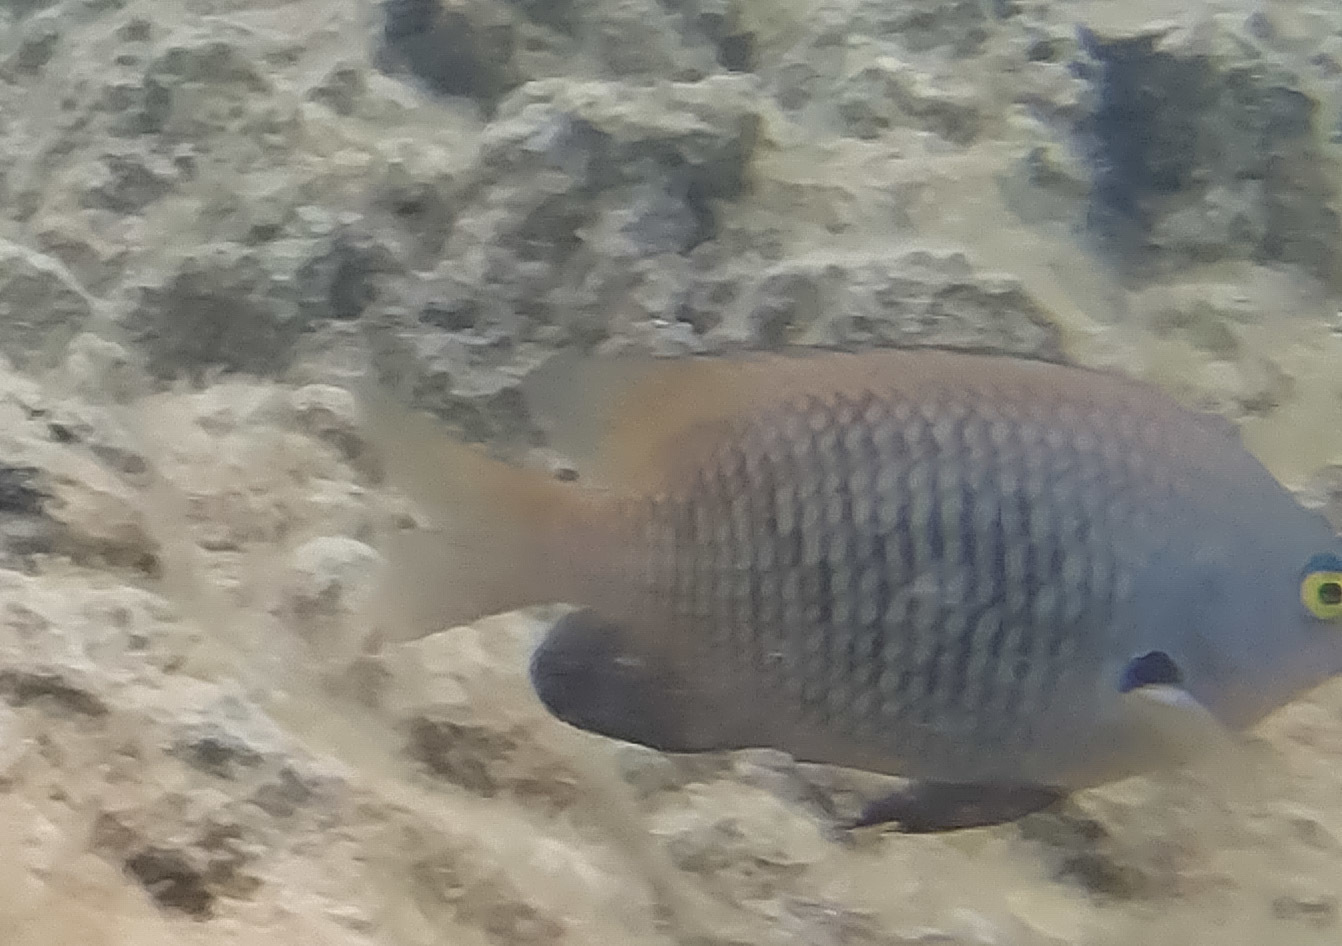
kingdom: Animalia
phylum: Chordata
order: Perciformes
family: Pomacentridae
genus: Stegastes
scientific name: Stegastes fasciolatus
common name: Pacific gregory
